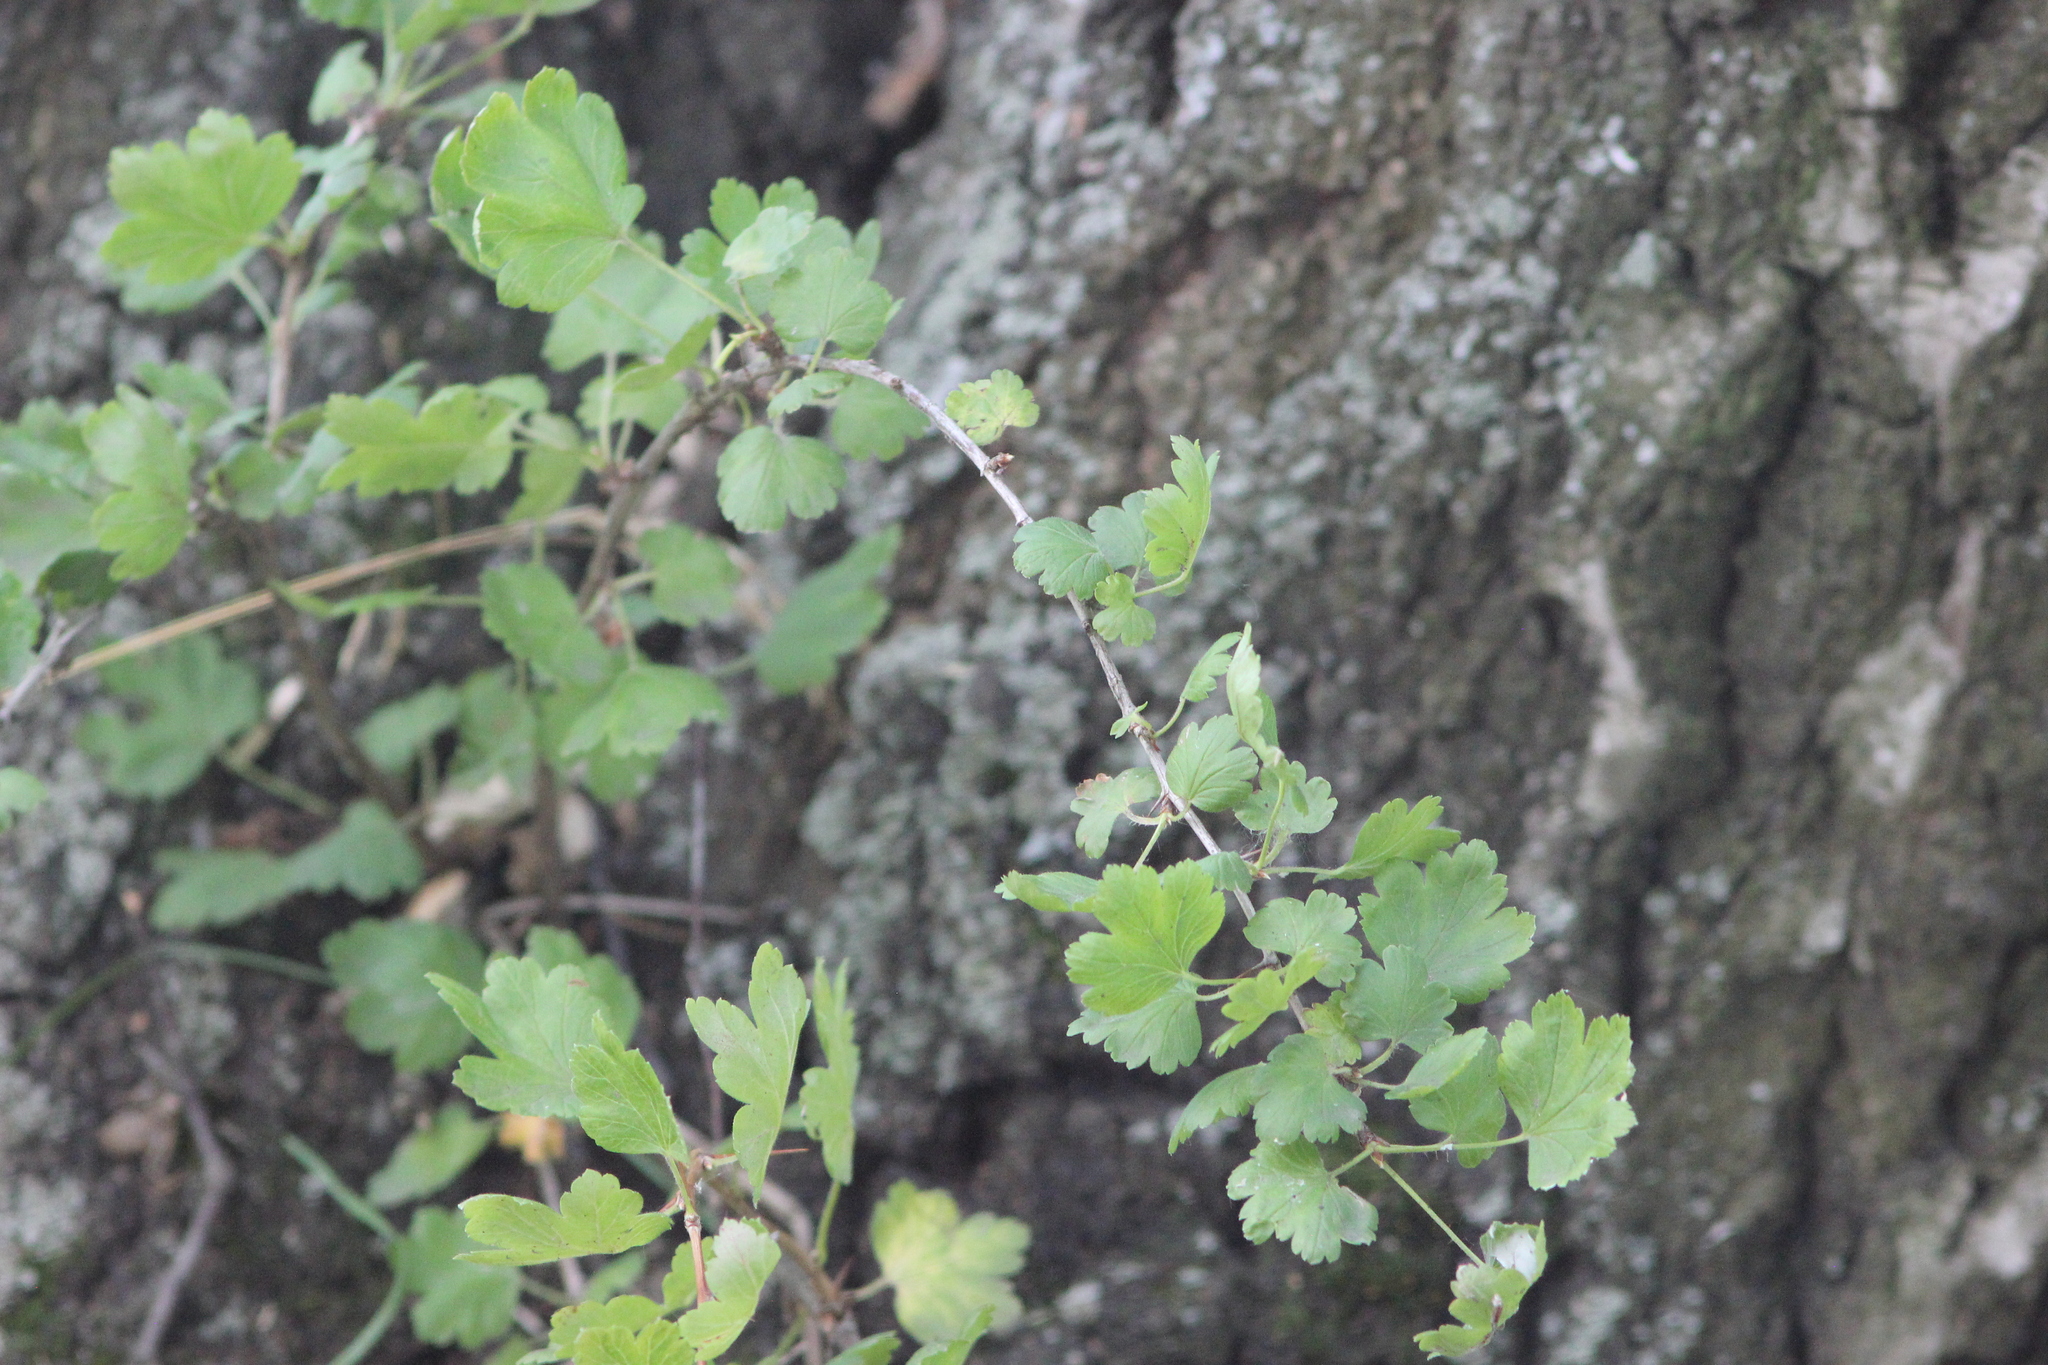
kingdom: Plantae
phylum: Tracheophyta
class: Magnoliopsida
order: Saxifragales
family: Grossulariaceae
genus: Ribes
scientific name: Ribes uva-crispa
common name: Gooseberry
